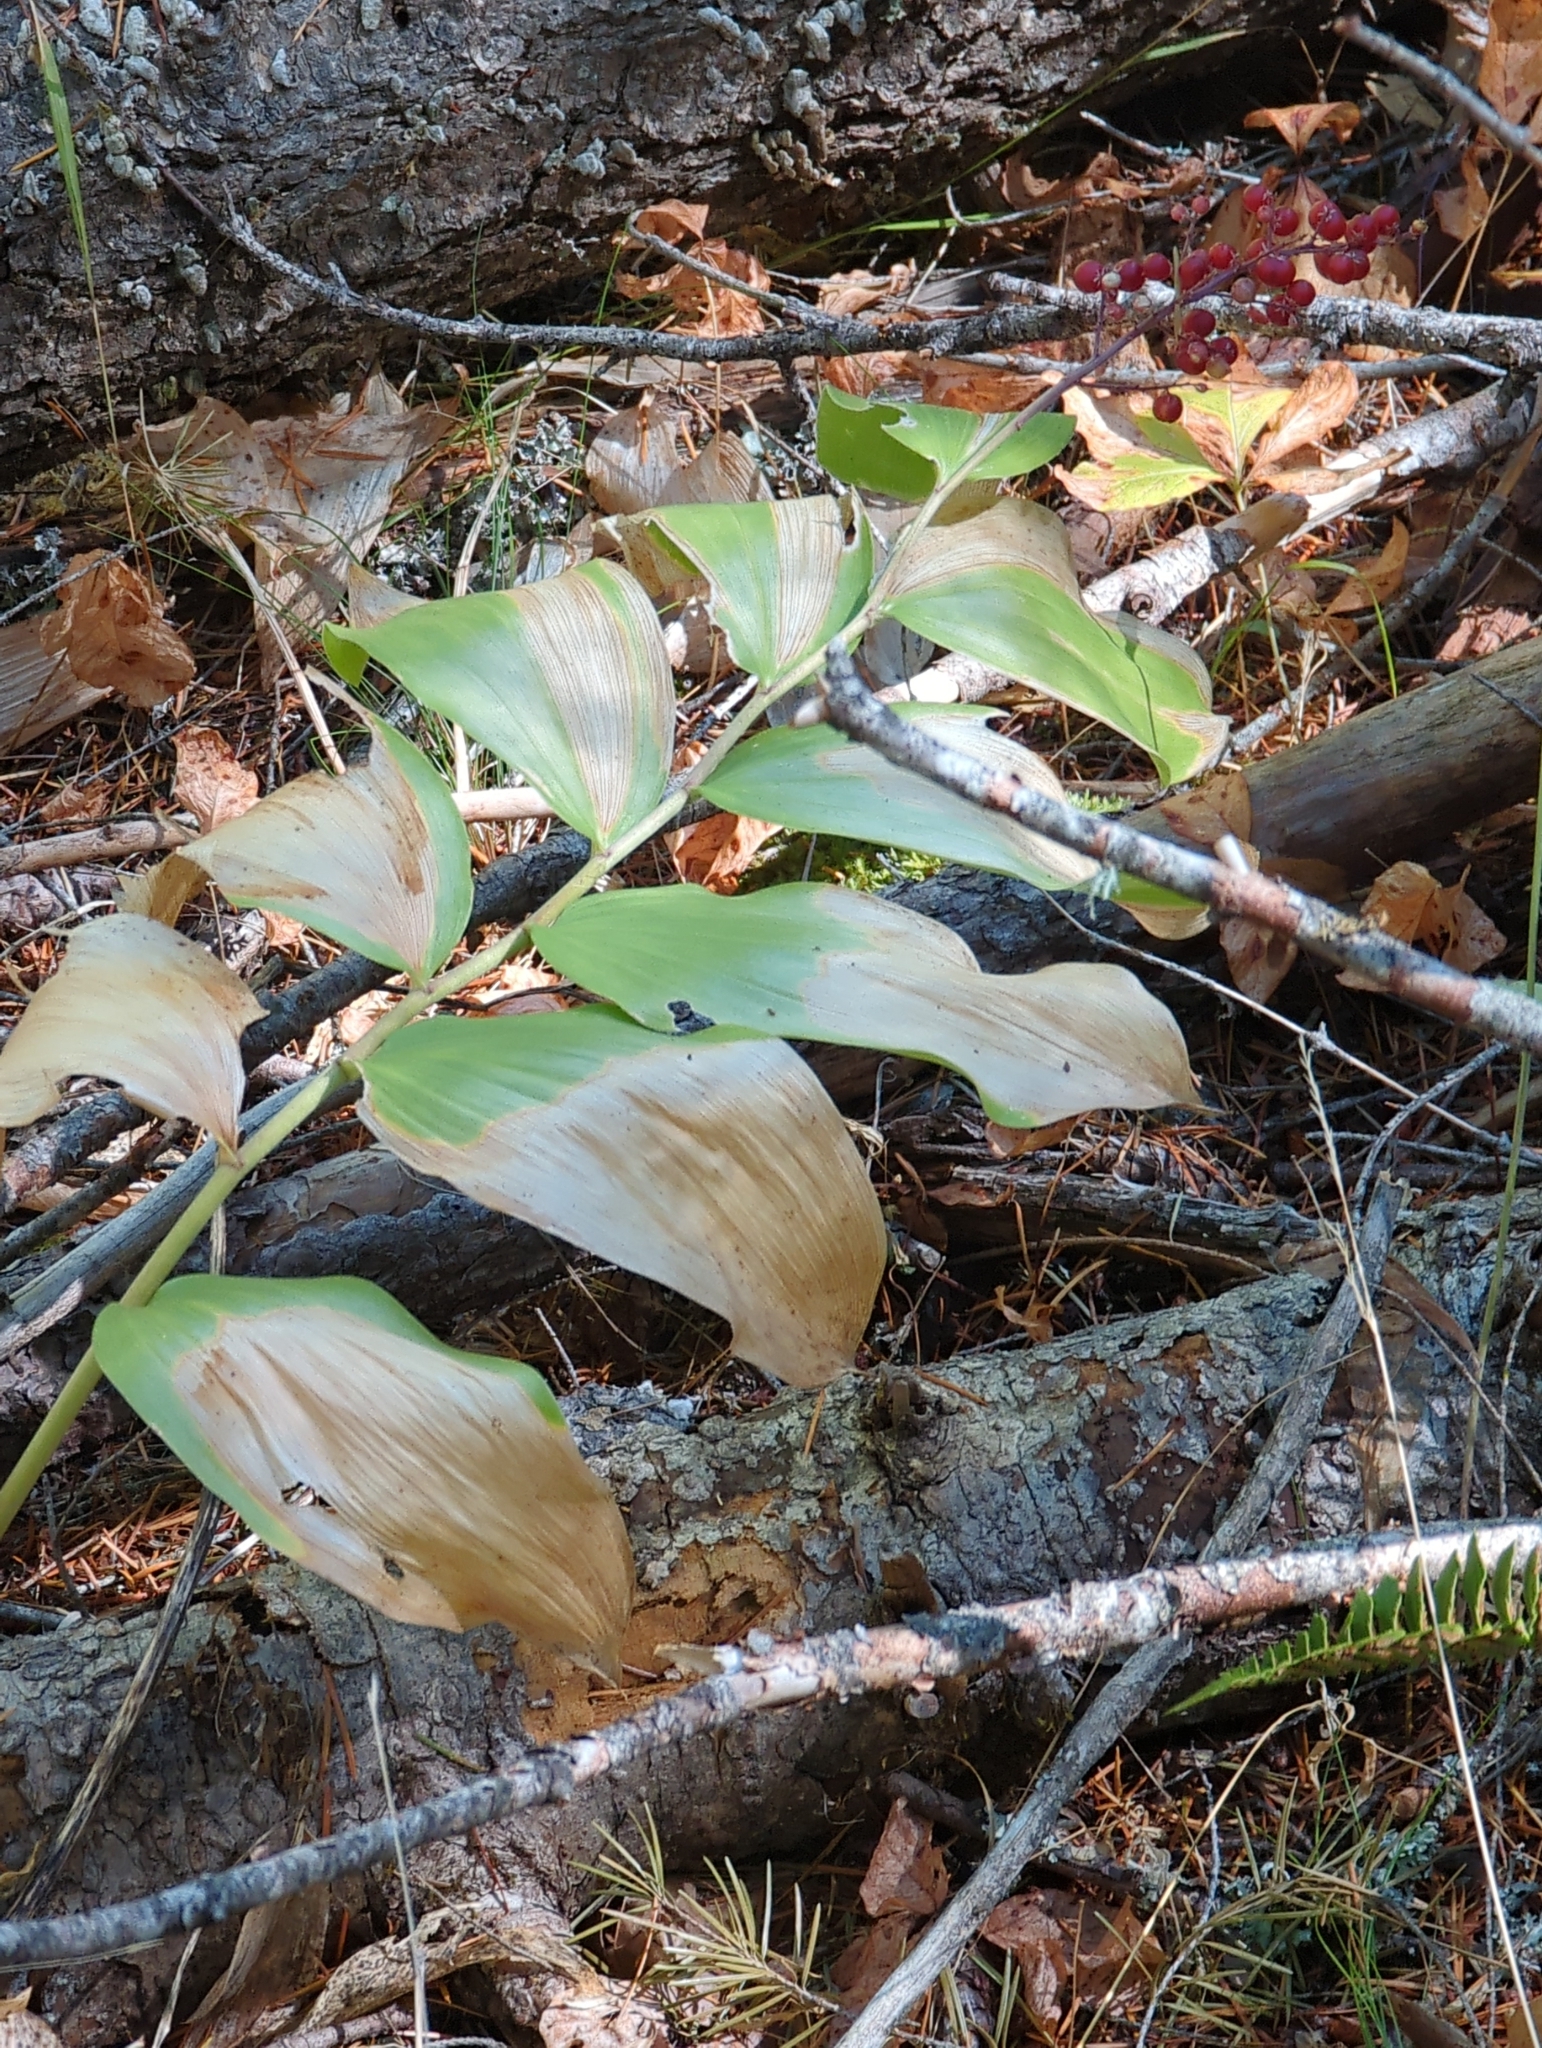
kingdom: Plantae
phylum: Tracheophyta
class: Liliopsida
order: Asparagales
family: Asparagaceae
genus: Maianthemum
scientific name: Maianthemum racemosum
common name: False spikenard
